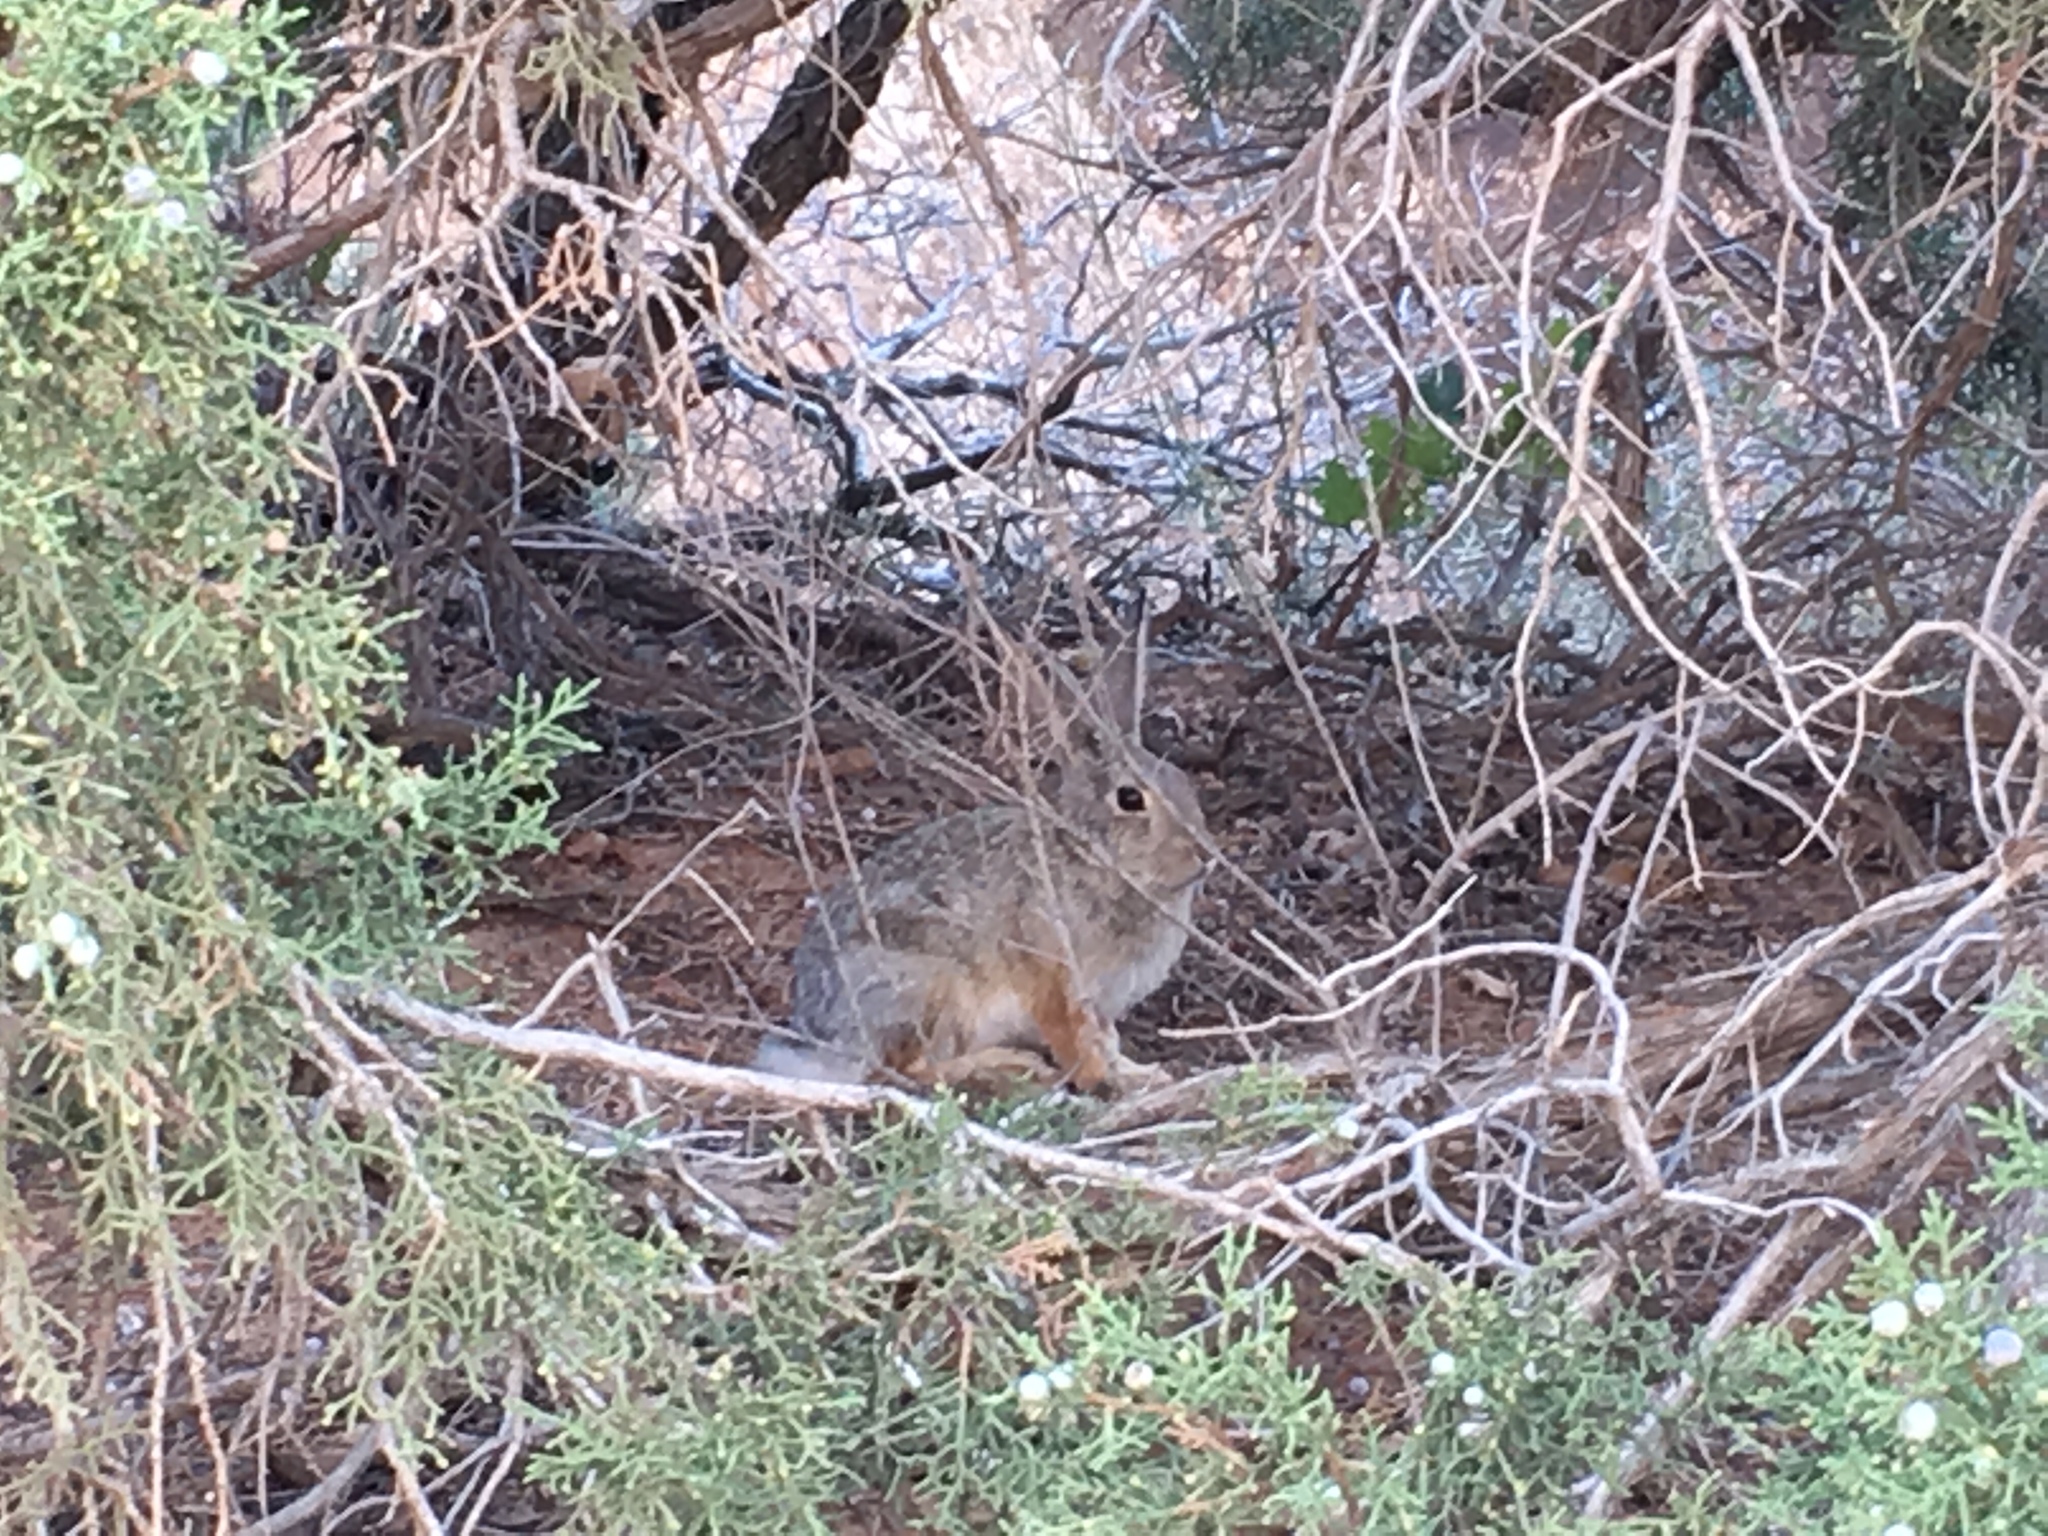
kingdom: Animalia
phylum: Chordata
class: Mammalia
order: Lagomorpha
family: Leporidae
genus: Sylvilagus
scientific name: Sylvilagus audubonii
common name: Desert cottontail
